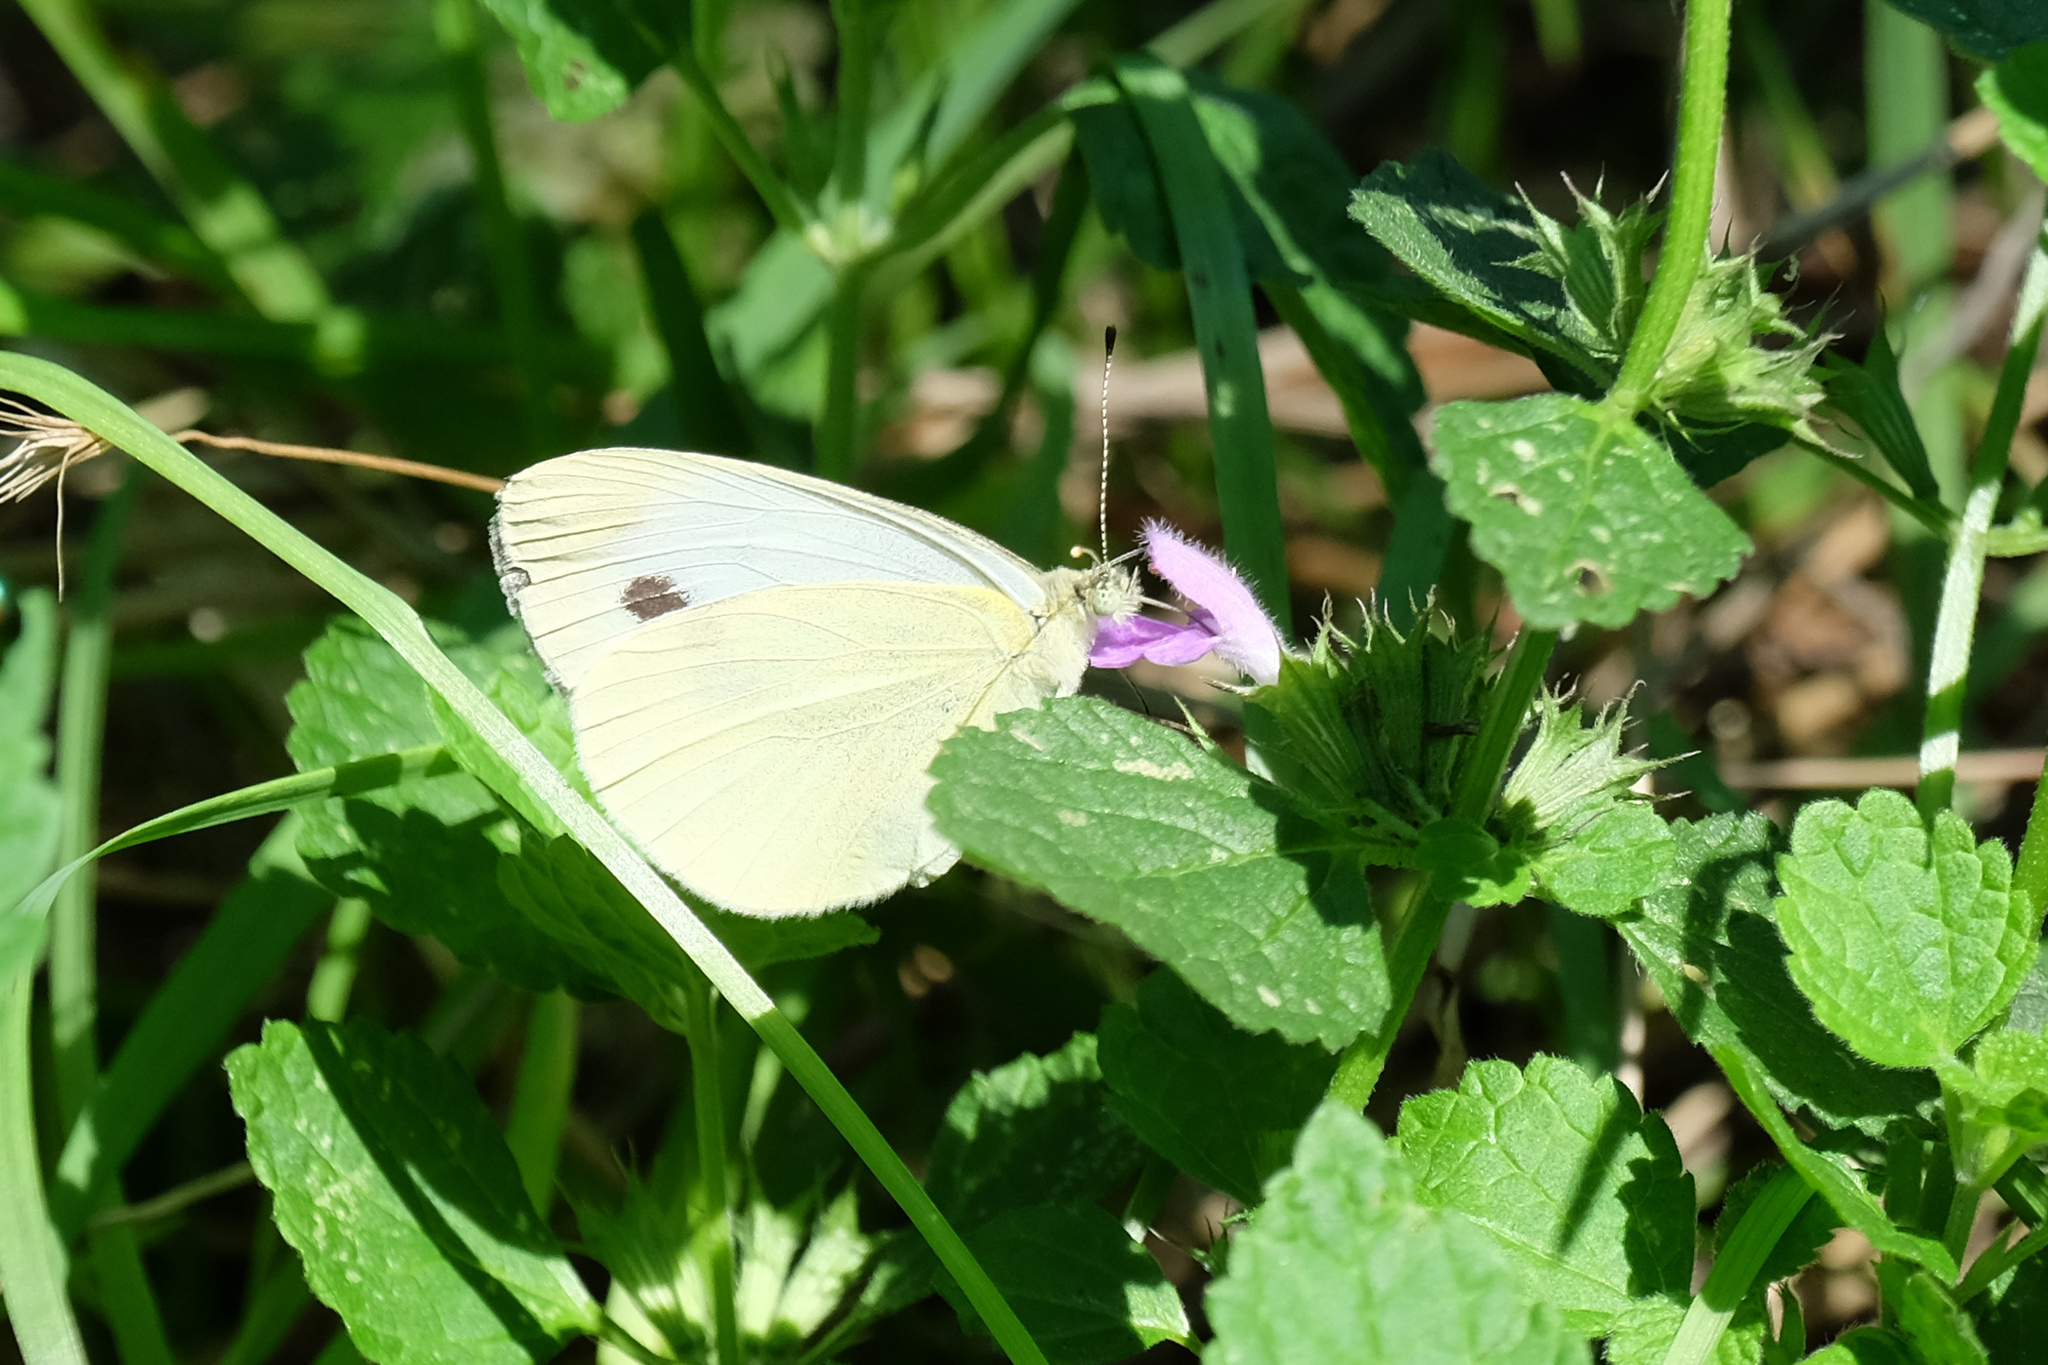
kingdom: Animalia
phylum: Arthropoda
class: Insecta
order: Lepidoptera
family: Pieridae
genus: Pieris
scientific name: Pieris rapae
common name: Small white
